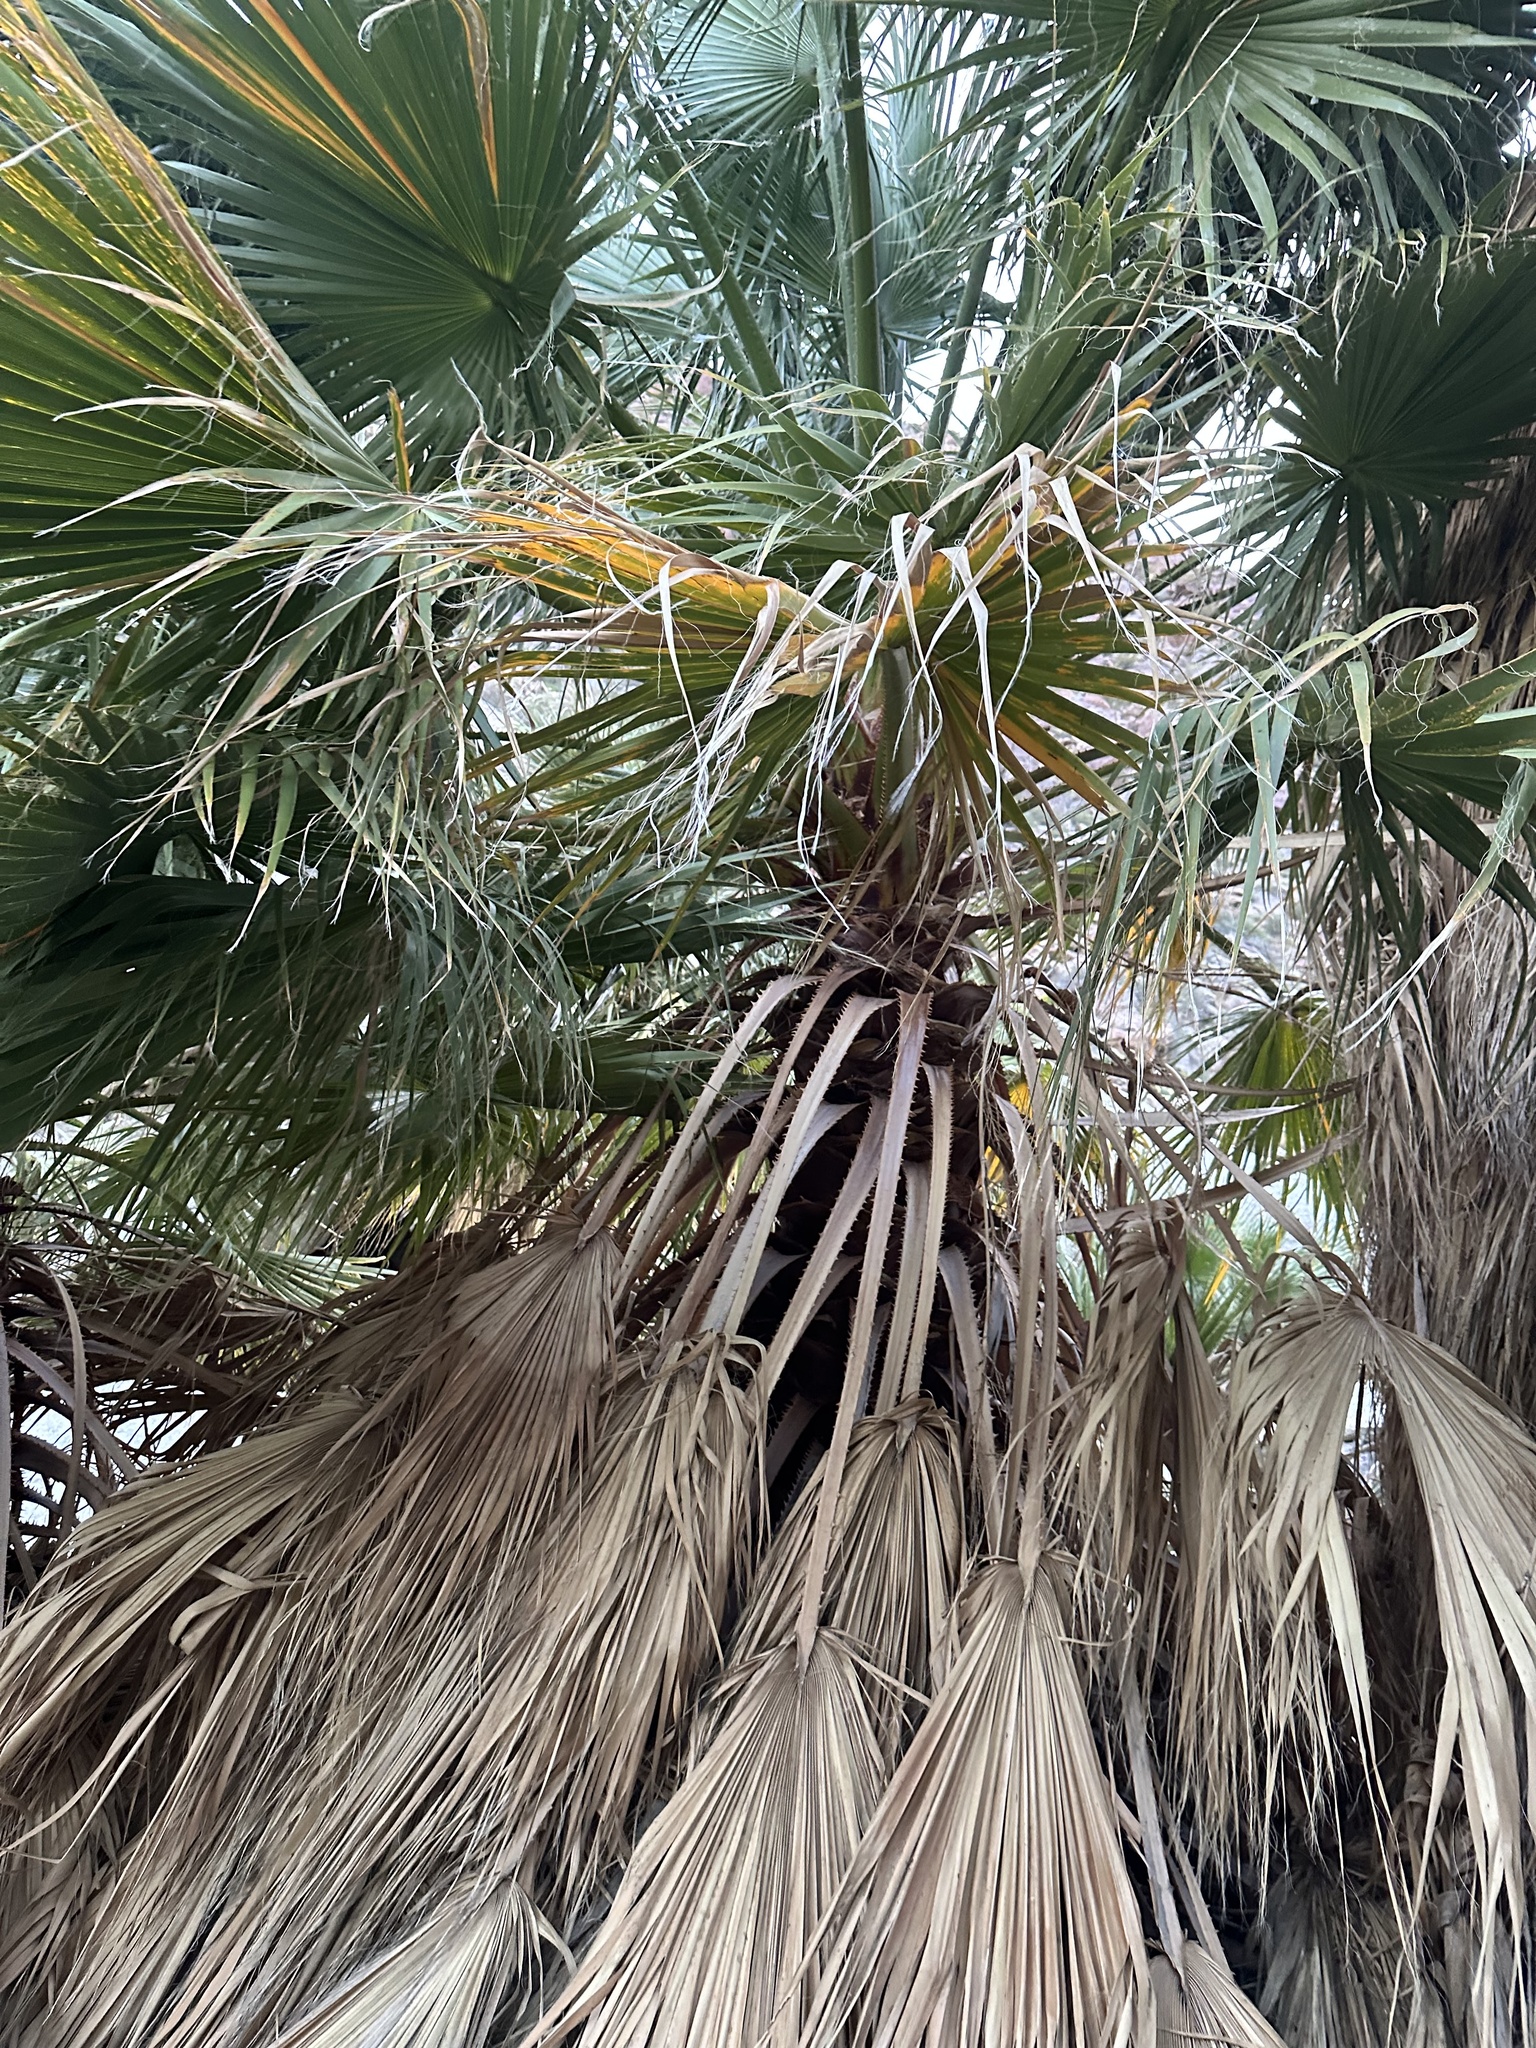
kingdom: Plantae
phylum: Tracheophyta
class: Liliopsida
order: Arecales
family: Arecaceae
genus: Washingtonia
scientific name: Washingtonia filifera
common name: California fan palm
